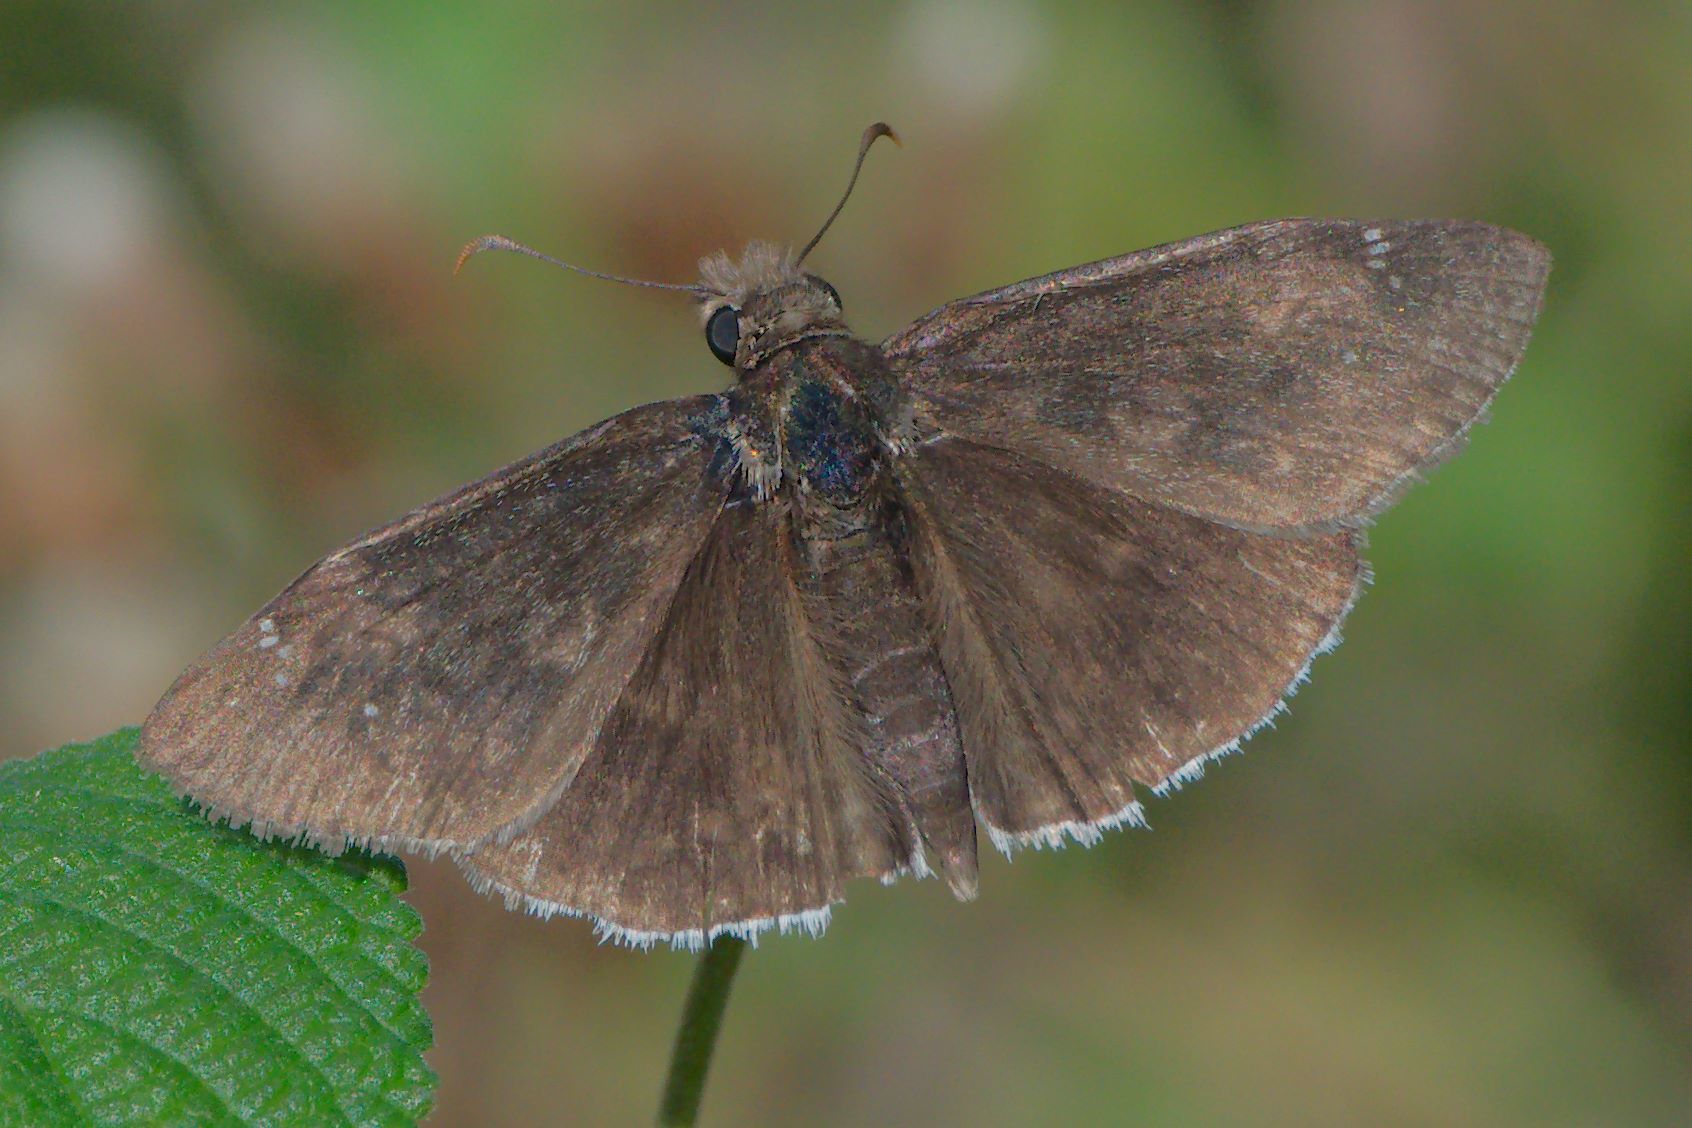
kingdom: Animalia
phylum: Arthropoda
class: Insecta
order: Lepidoptera
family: Hesperiidae
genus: Erynnis
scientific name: Erynnis funeralis
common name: Funereal duskywing
